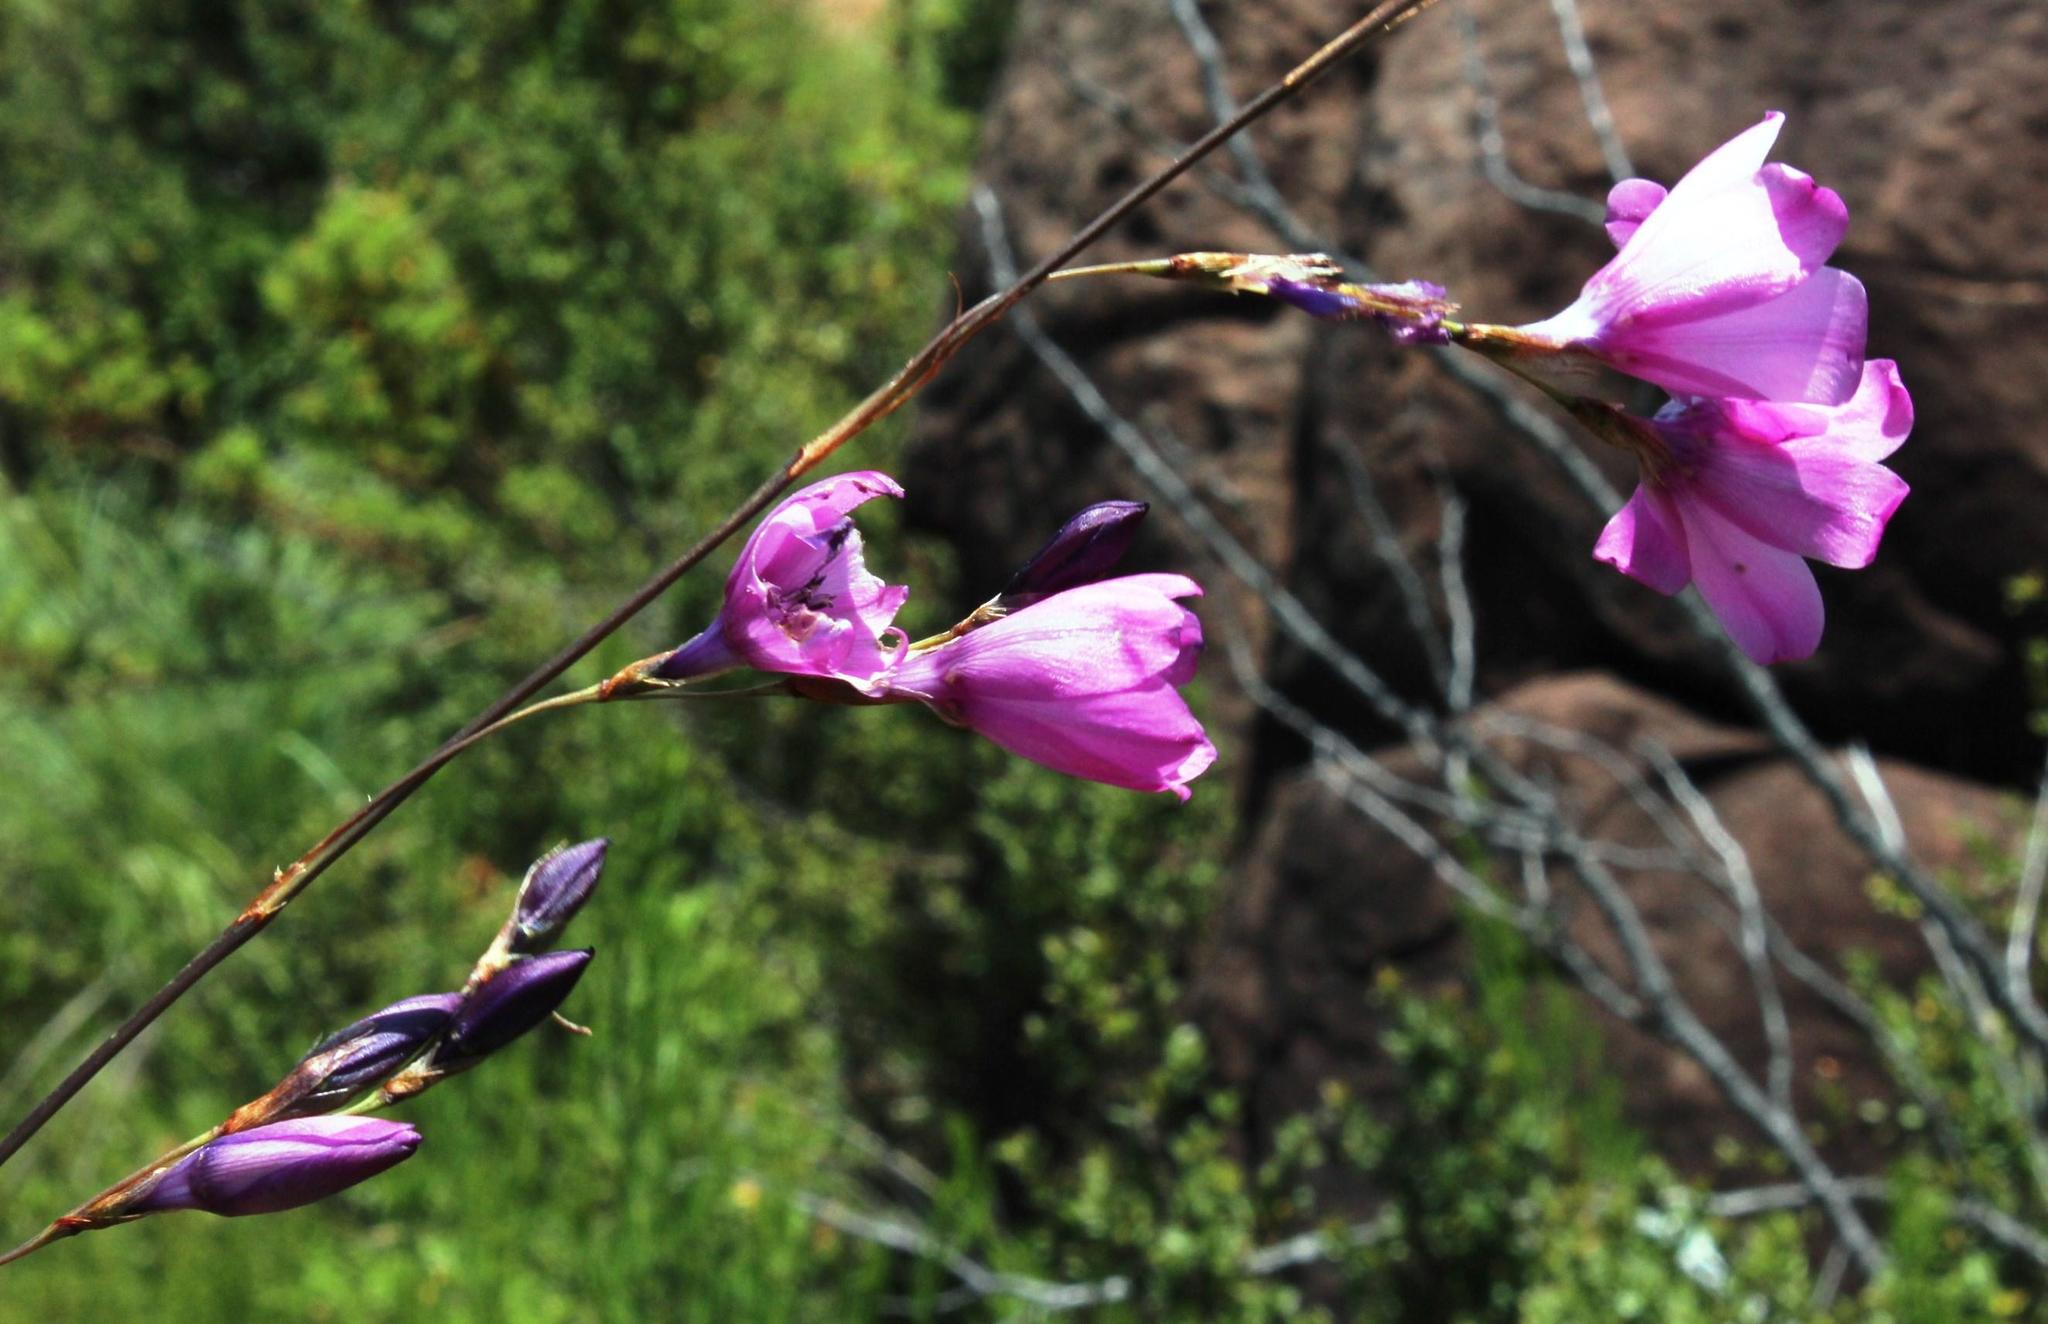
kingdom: Plantae
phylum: Tracheophyta
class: Liliopsida
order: Asparagales
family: Iridaceae
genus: Dierama
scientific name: Dierama robustum
